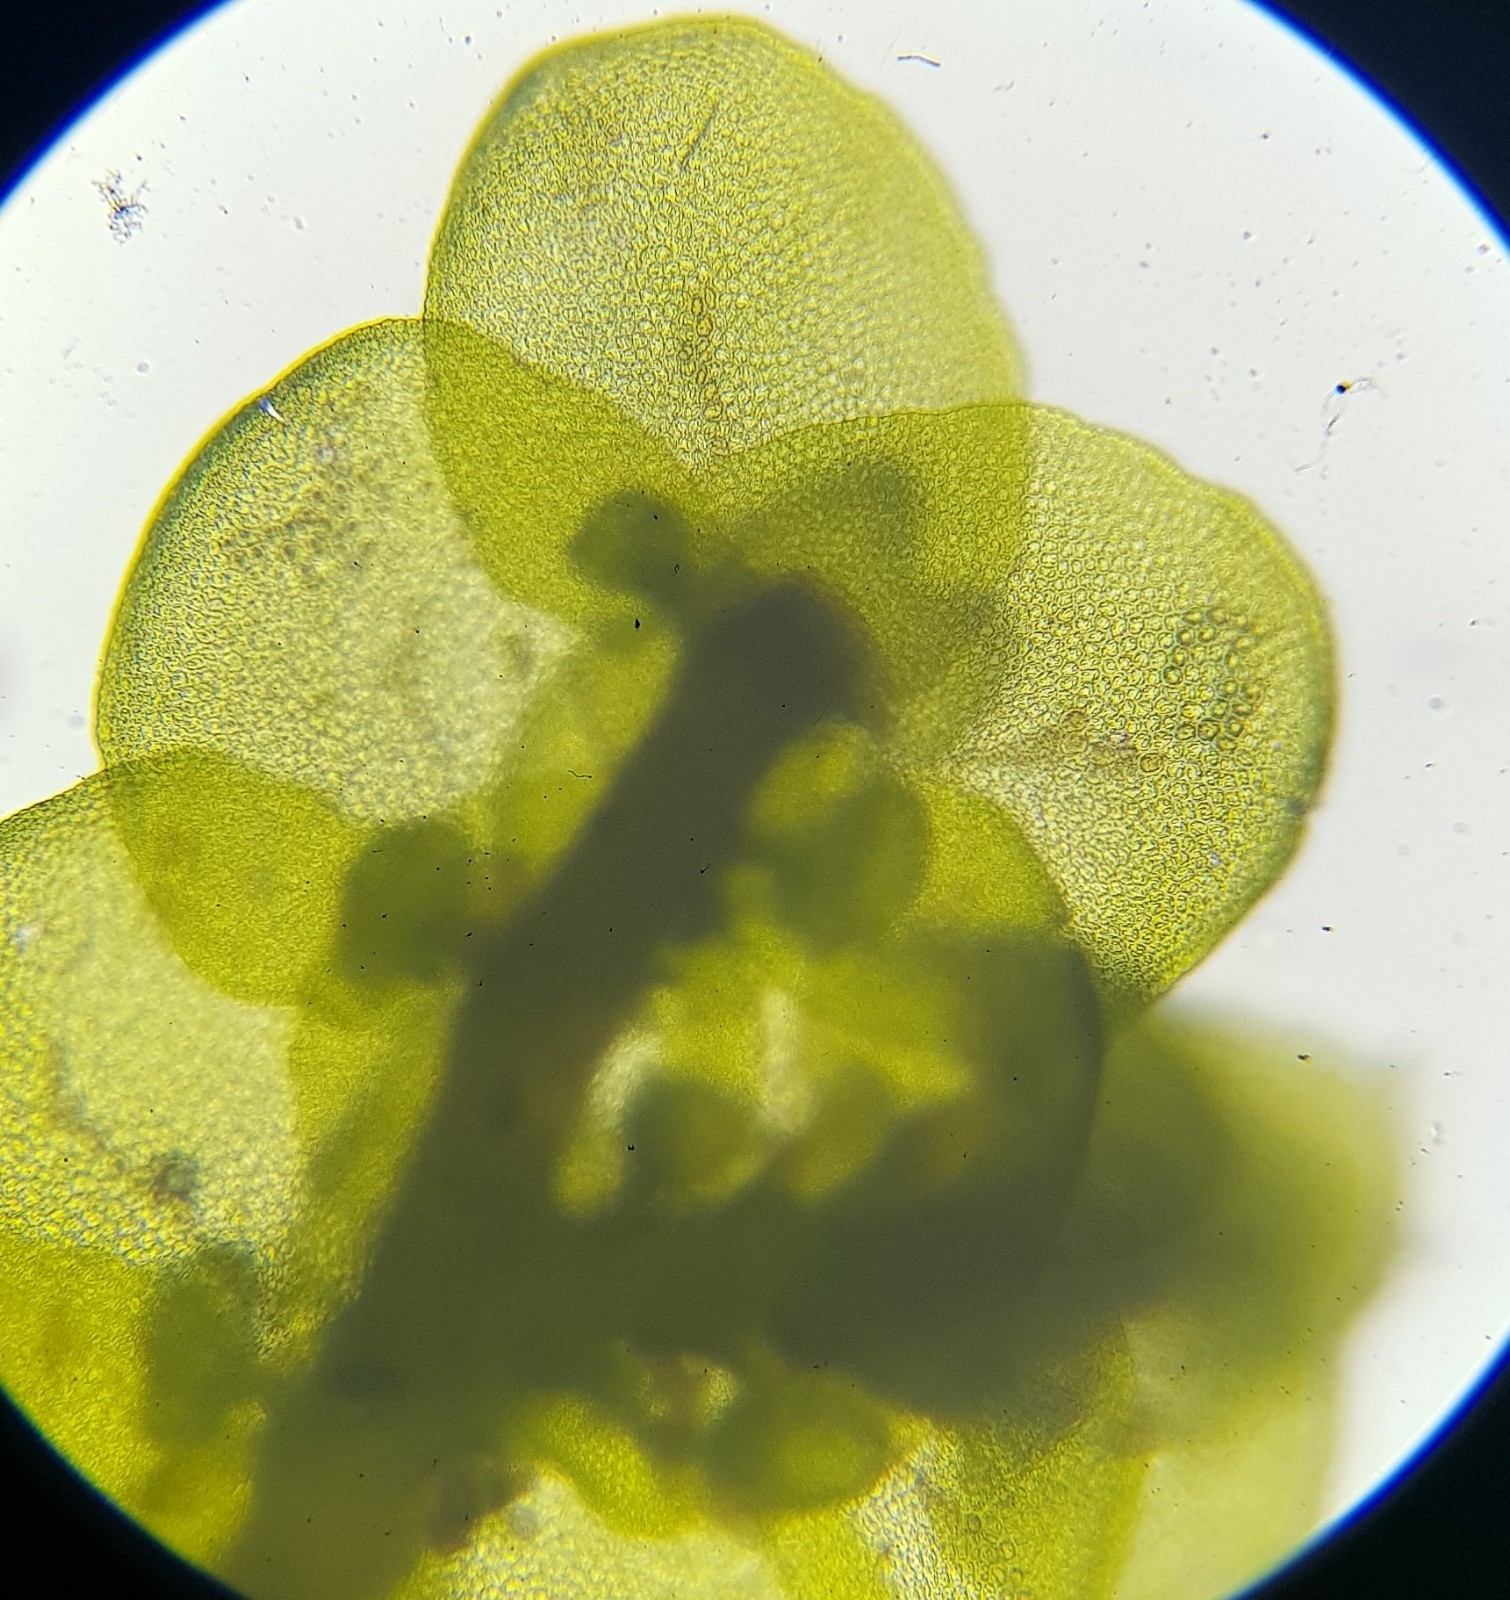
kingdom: Plantae
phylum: Marchantiophyta
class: Jungermanniopsida
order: Porellales
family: Frullaniaceae
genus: Frullania
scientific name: Frullania tamarisci
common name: Tamarisk scalewort
